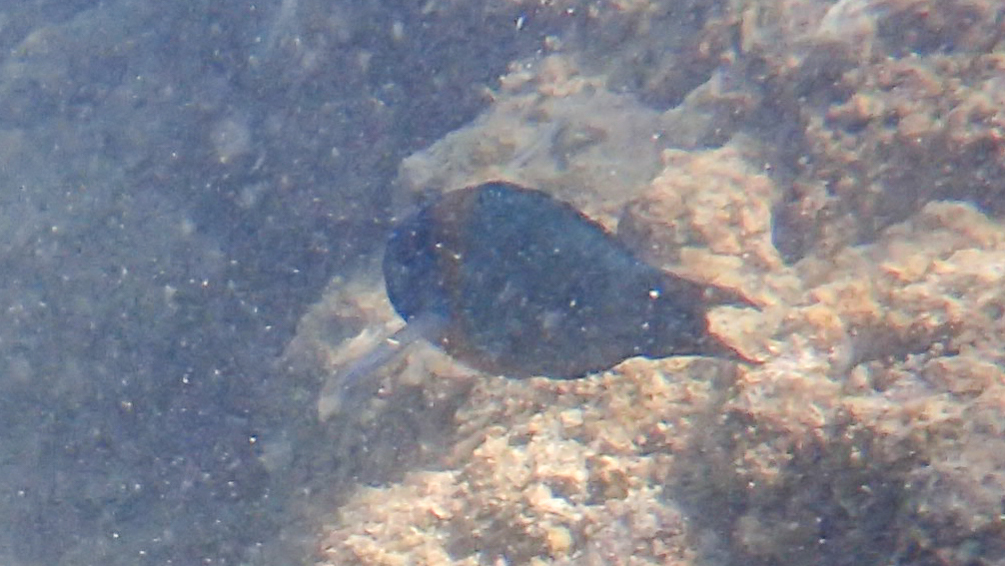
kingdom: Animalia
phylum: Chordata
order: Perciformes
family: Labridae
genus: Thalassoma
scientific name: Thalassoma duperrey
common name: Saddle wrasse
